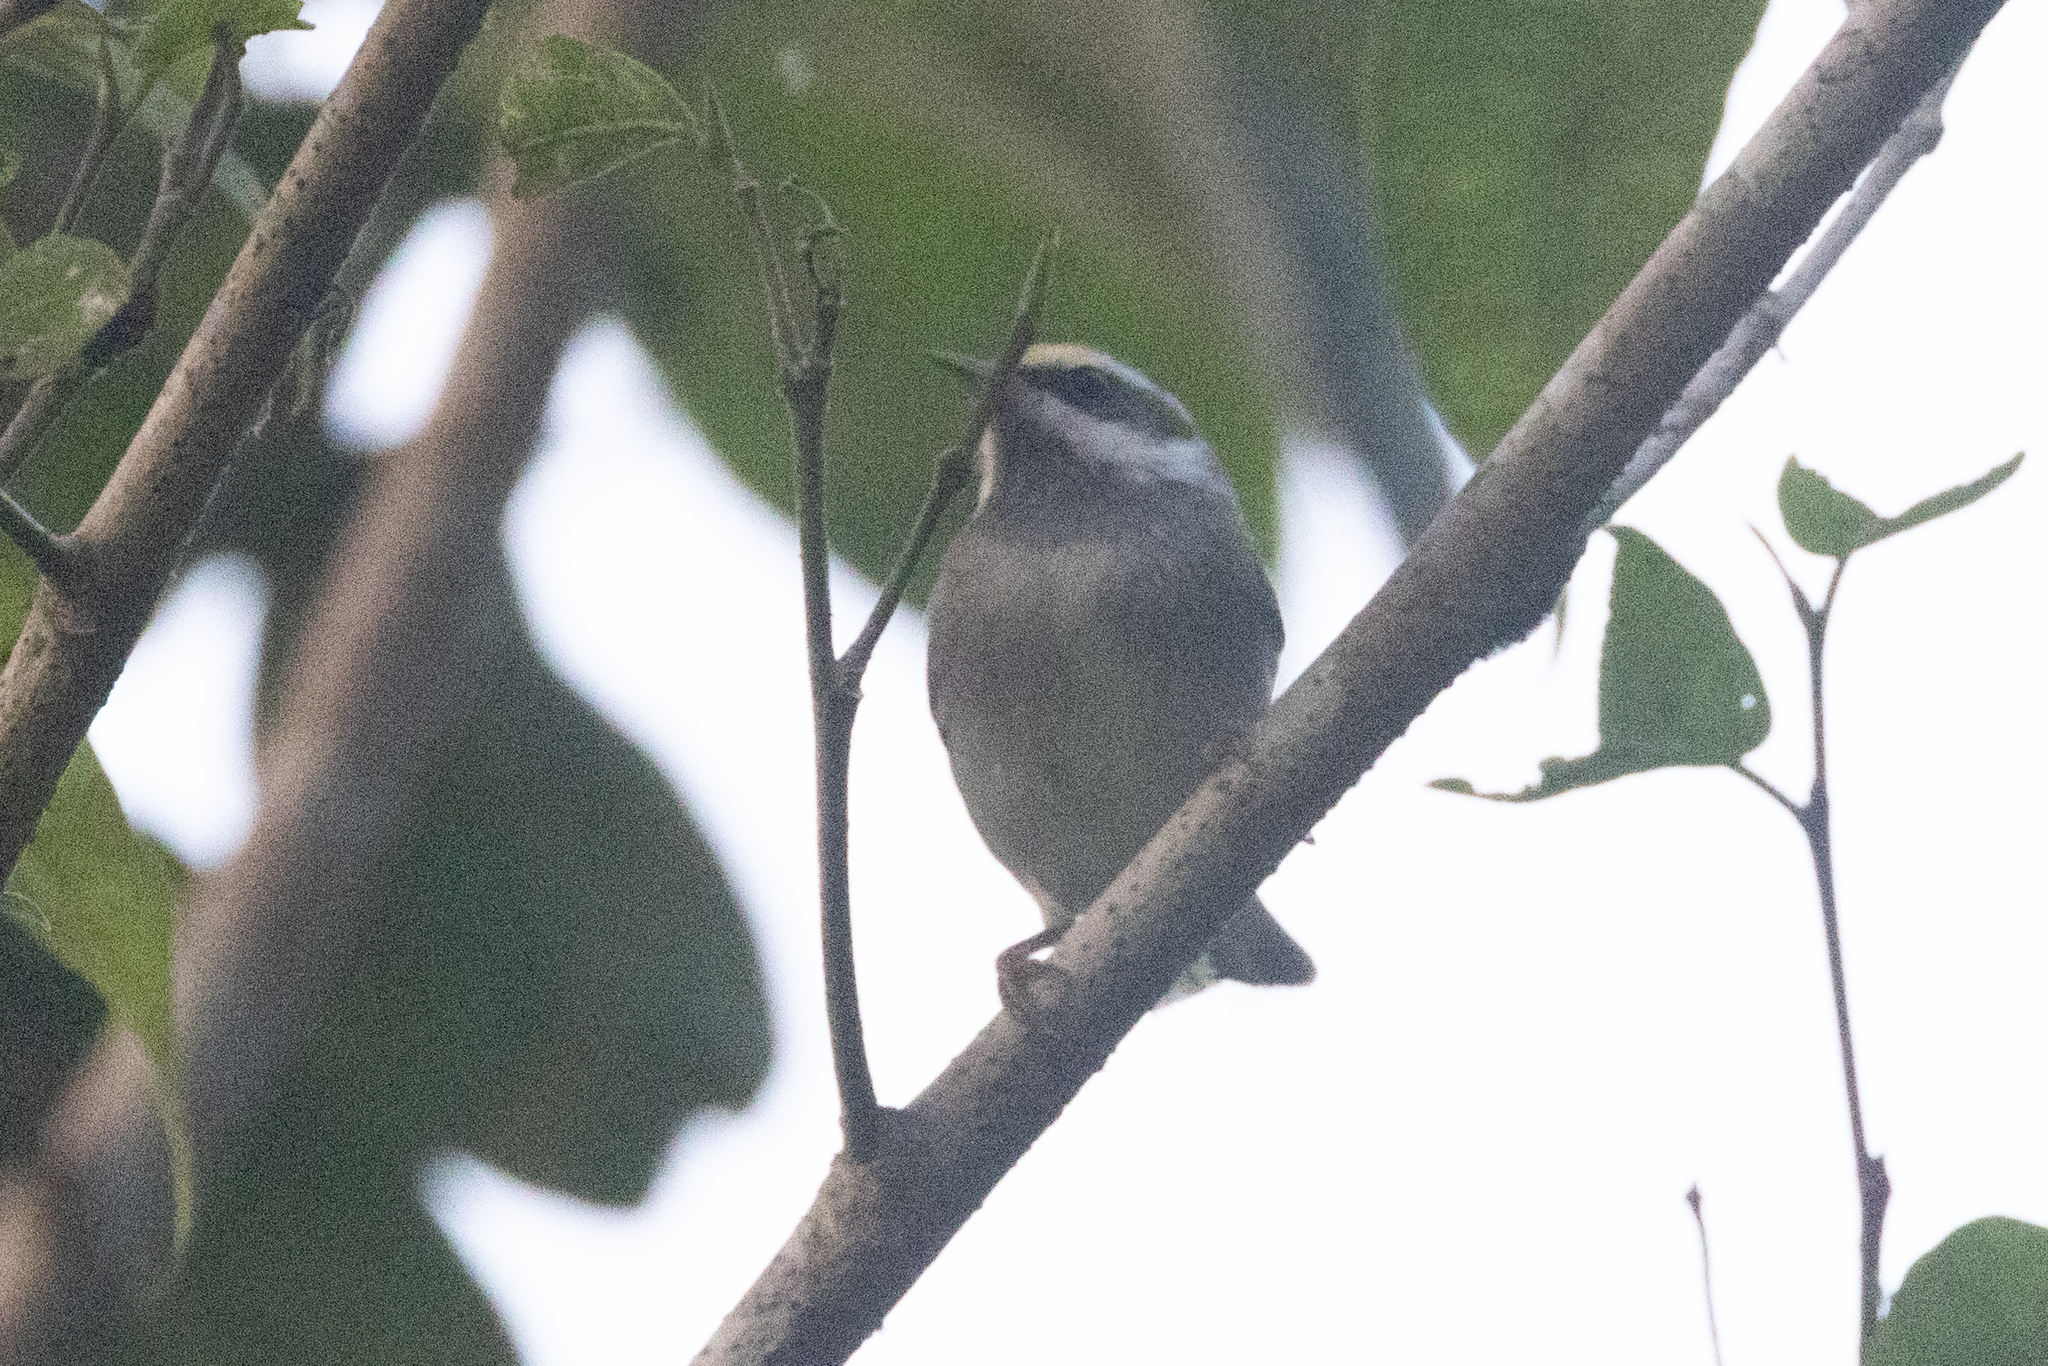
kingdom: Animalia
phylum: Chordata
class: Aves
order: Passeriformes
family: Parulidae
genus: Vermivora
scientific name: Vermivora chrysoptera
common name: Golden-winged warbler
